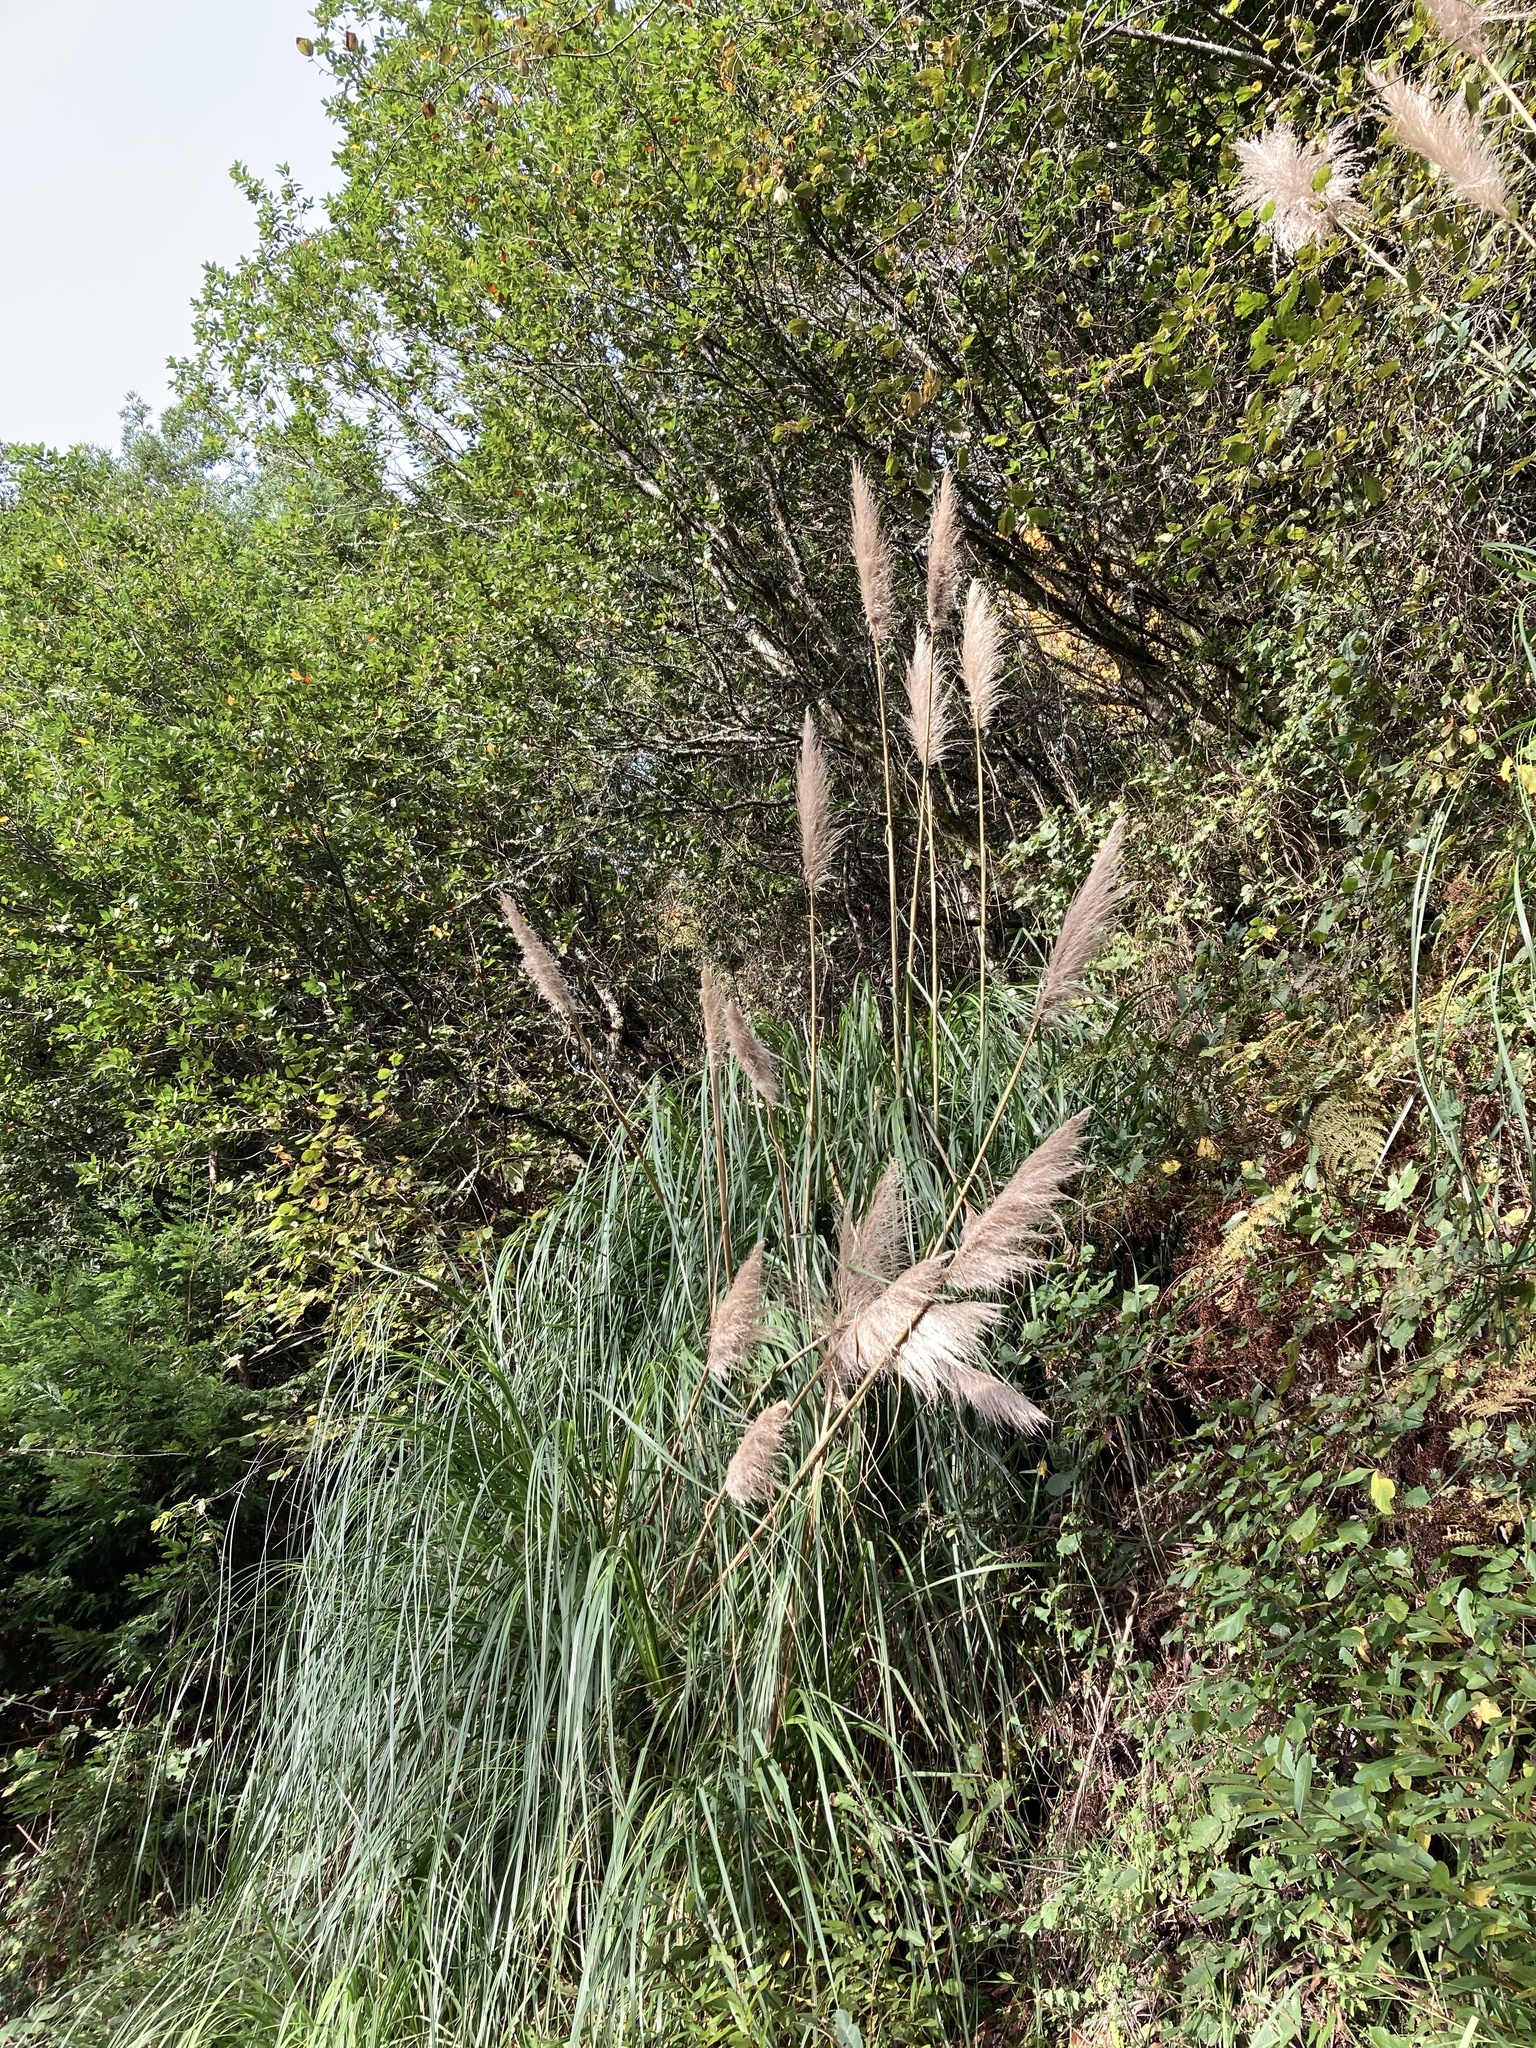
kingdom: Plantae
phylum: Tracheophyta
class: Liliopsida
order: Poales
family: Poaceae
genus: Cortaderia
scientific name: Cortaderia selloana
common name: Uruguayan pampas grass
